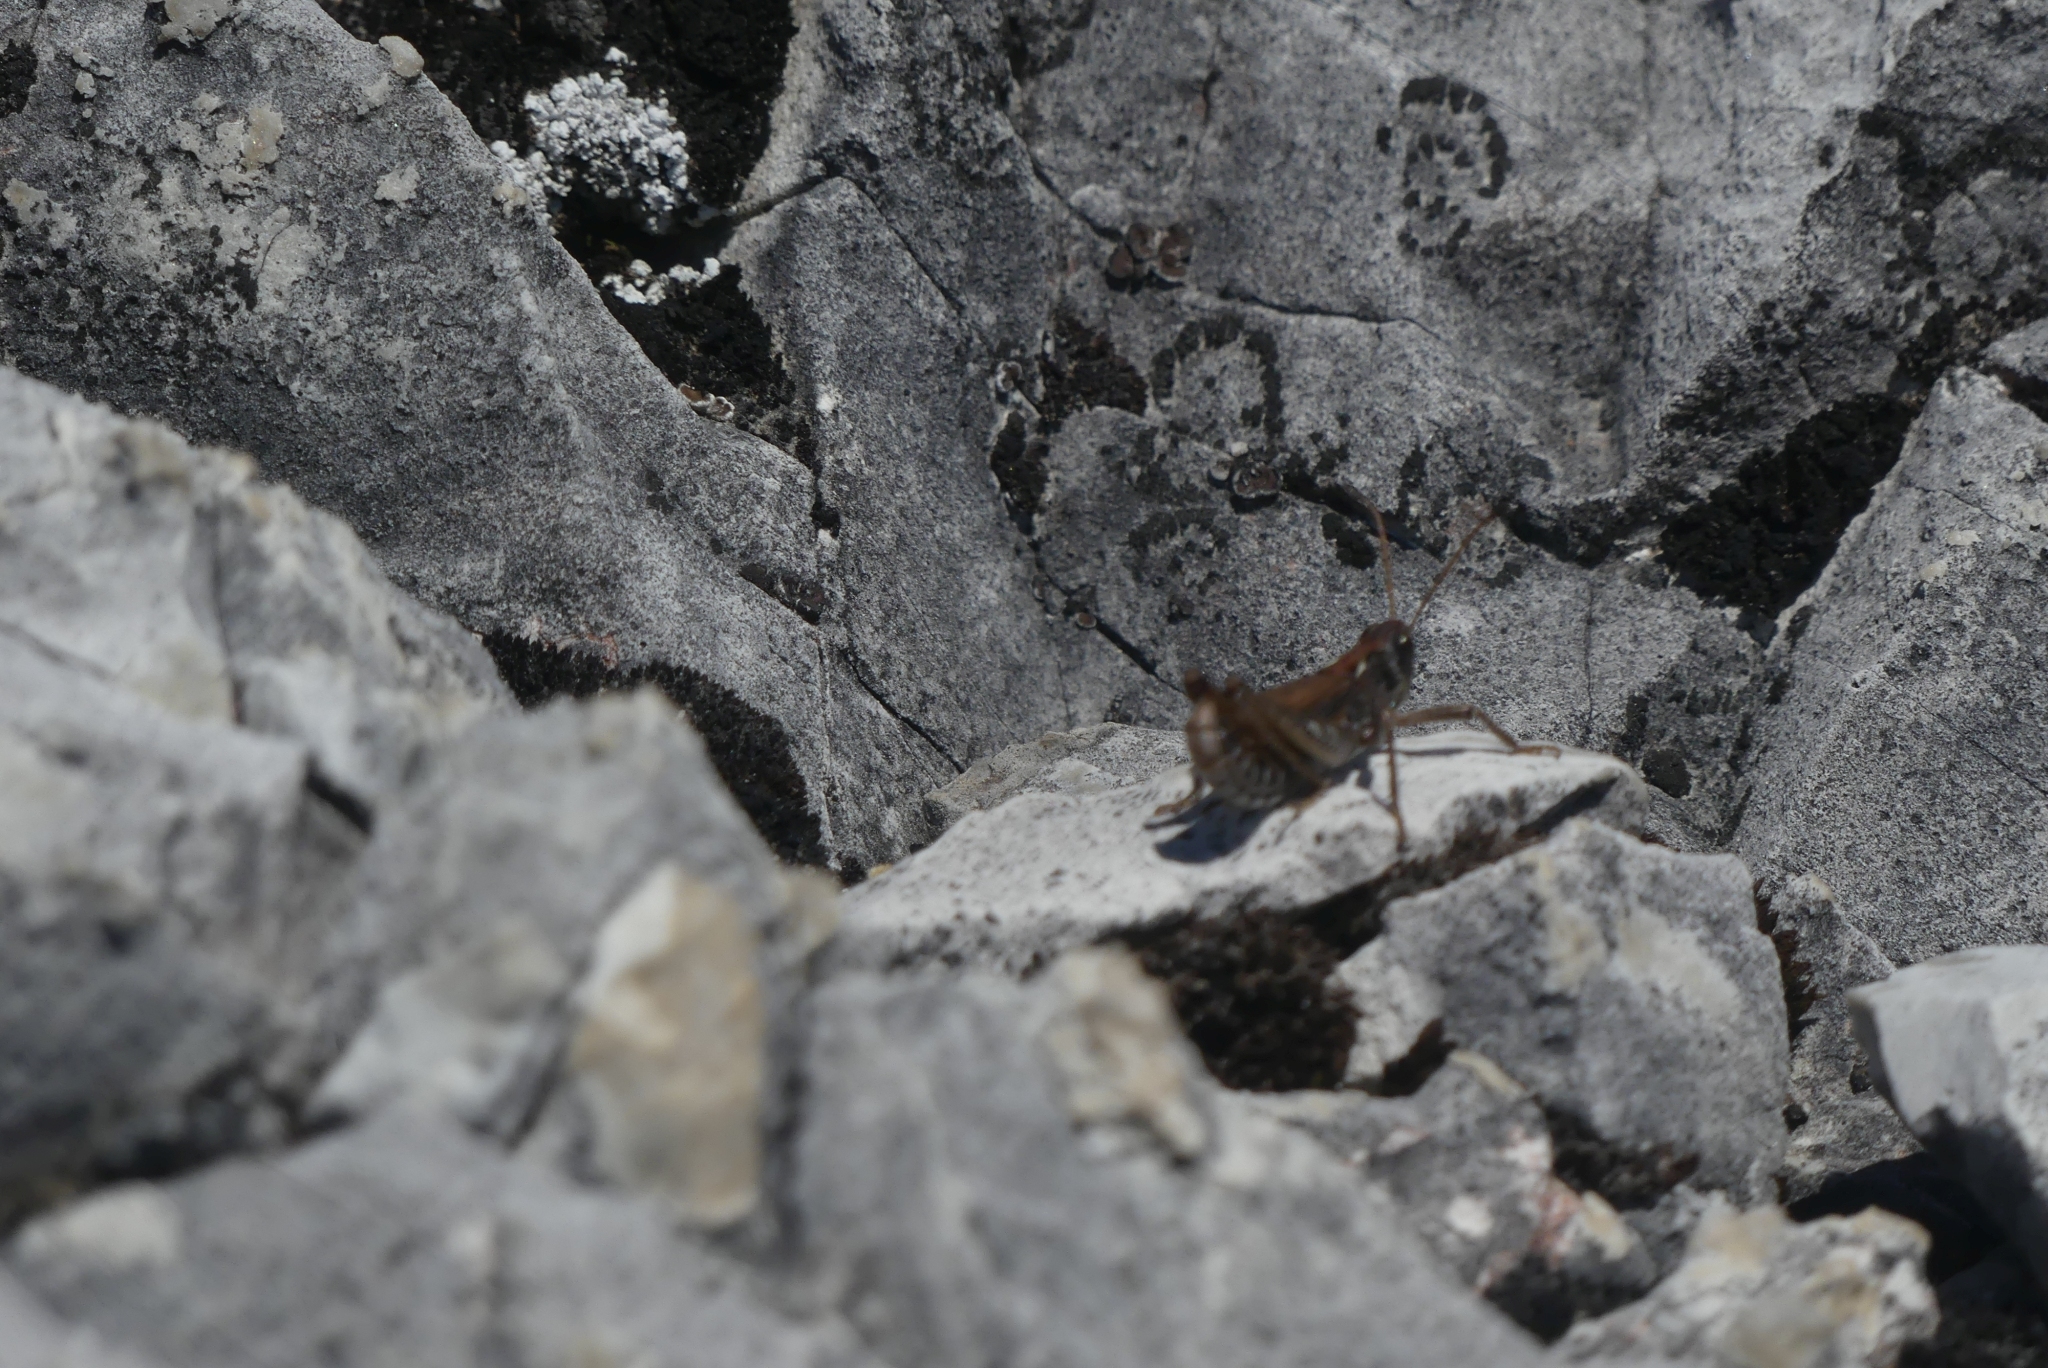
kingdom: Animalia
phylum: Arthropoda
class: Insecta
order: Orthoptera
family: Acrididae
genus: Aeropedellus
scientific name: Aeropedellus clavatus
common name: Clubhorned grasshopper
